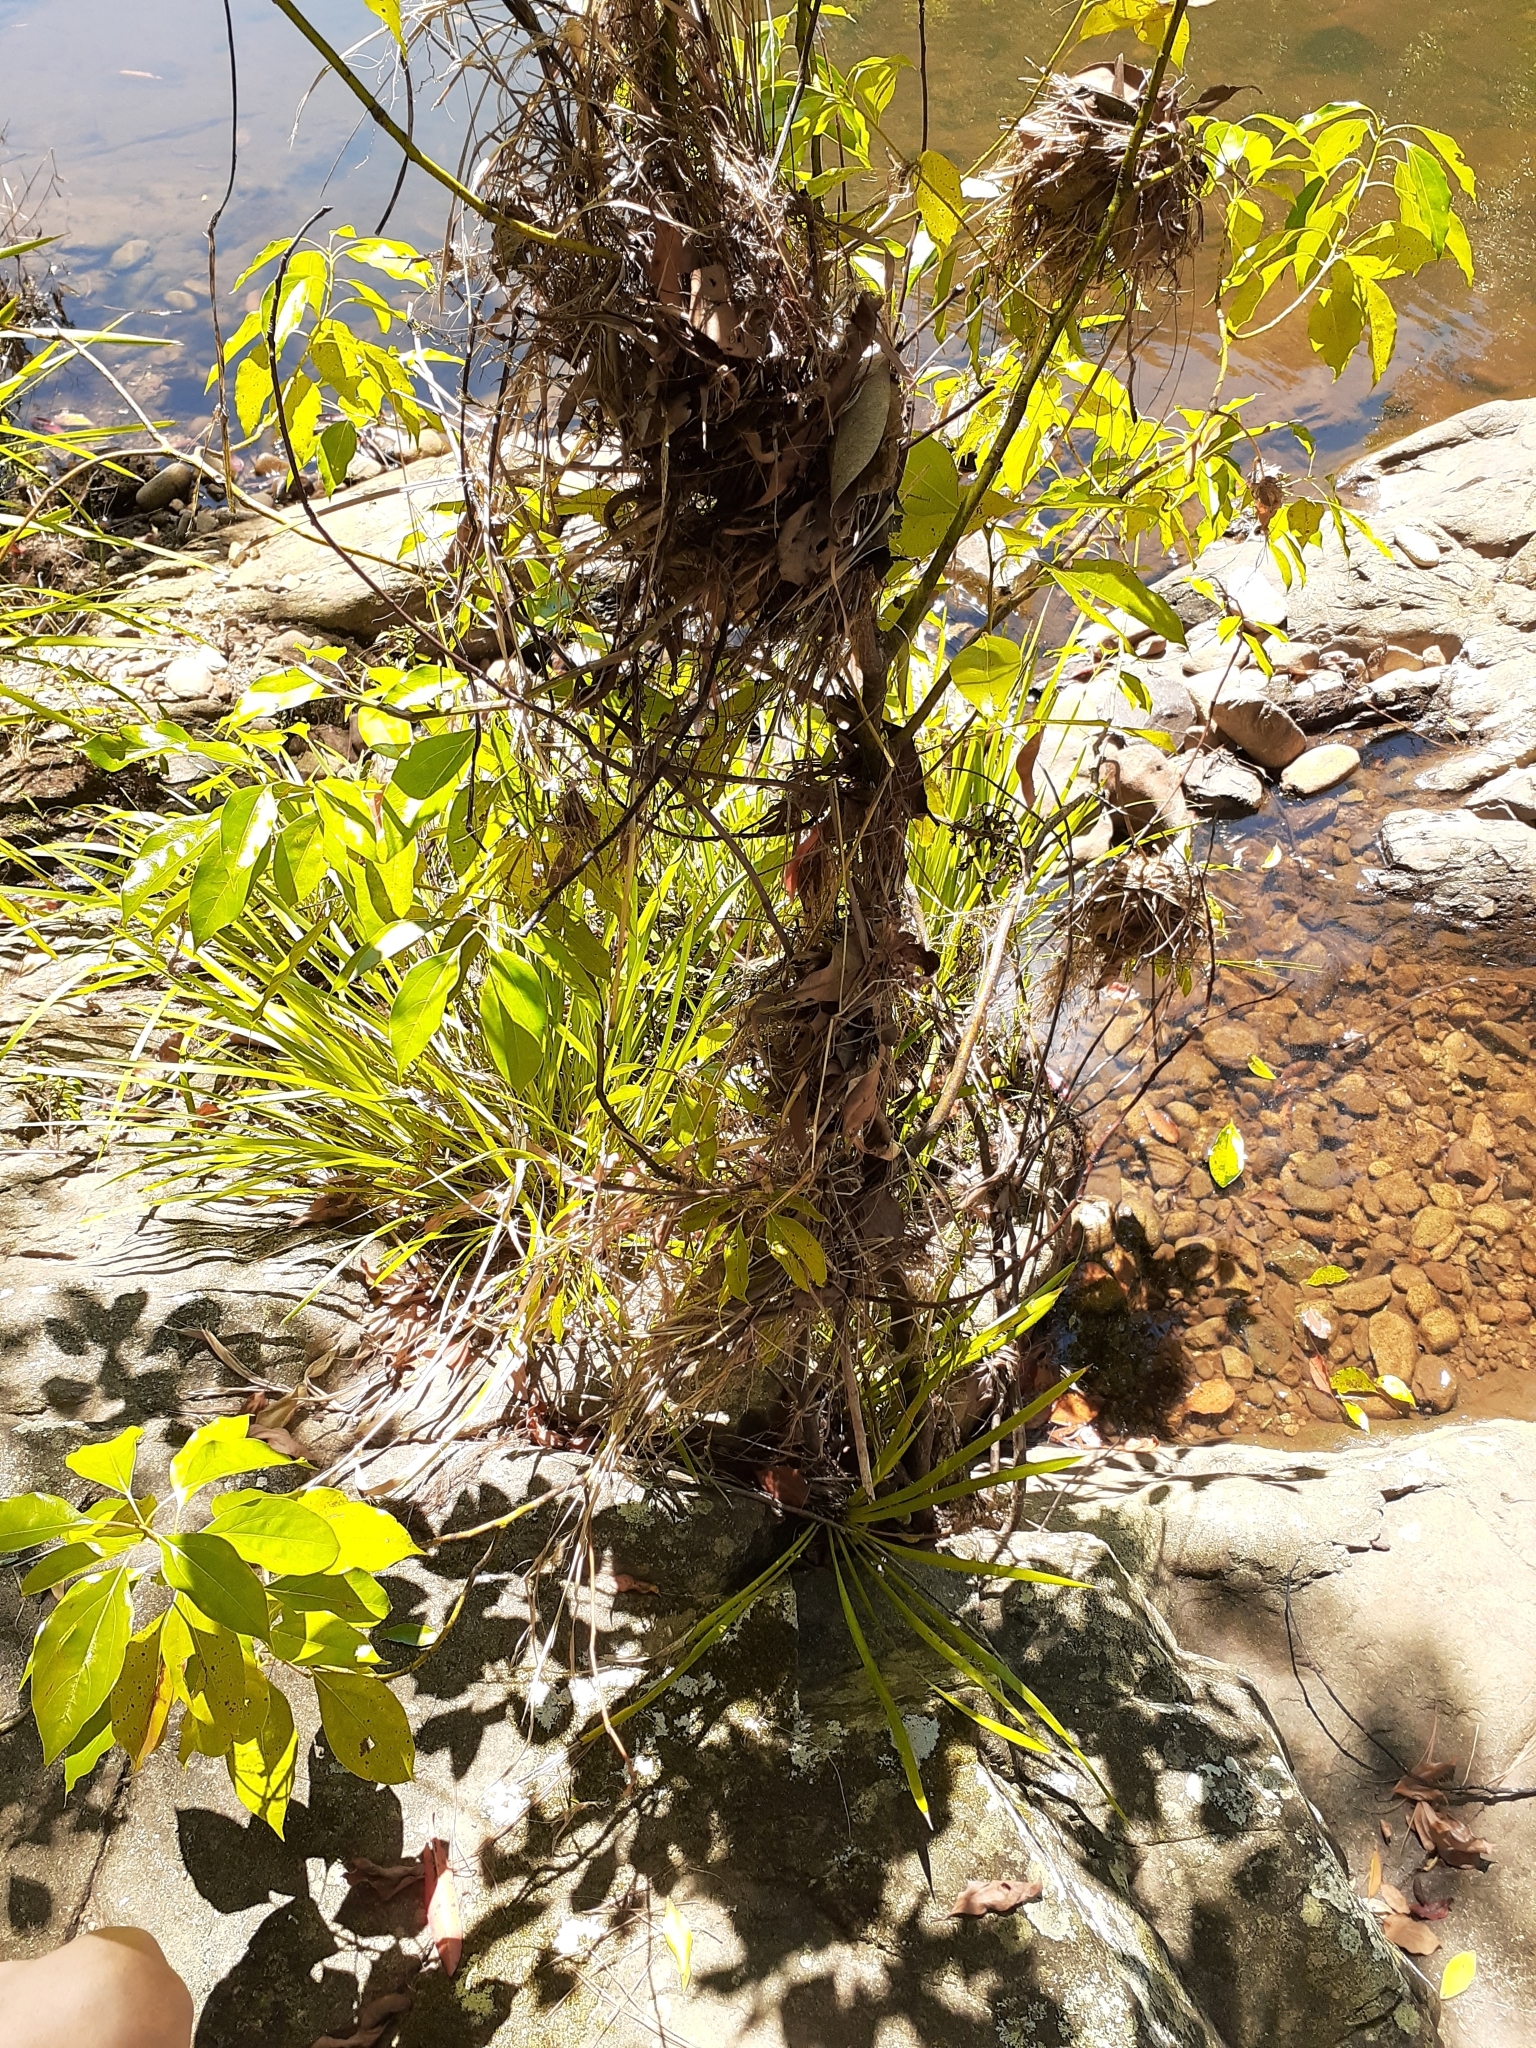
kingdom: Plantae
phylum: Tracheophyta
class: Magnoliopsida
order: Laurales
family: Lauraceae
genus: Cinnamomum
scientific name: Cinnamomum camphora
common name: Camphortree
